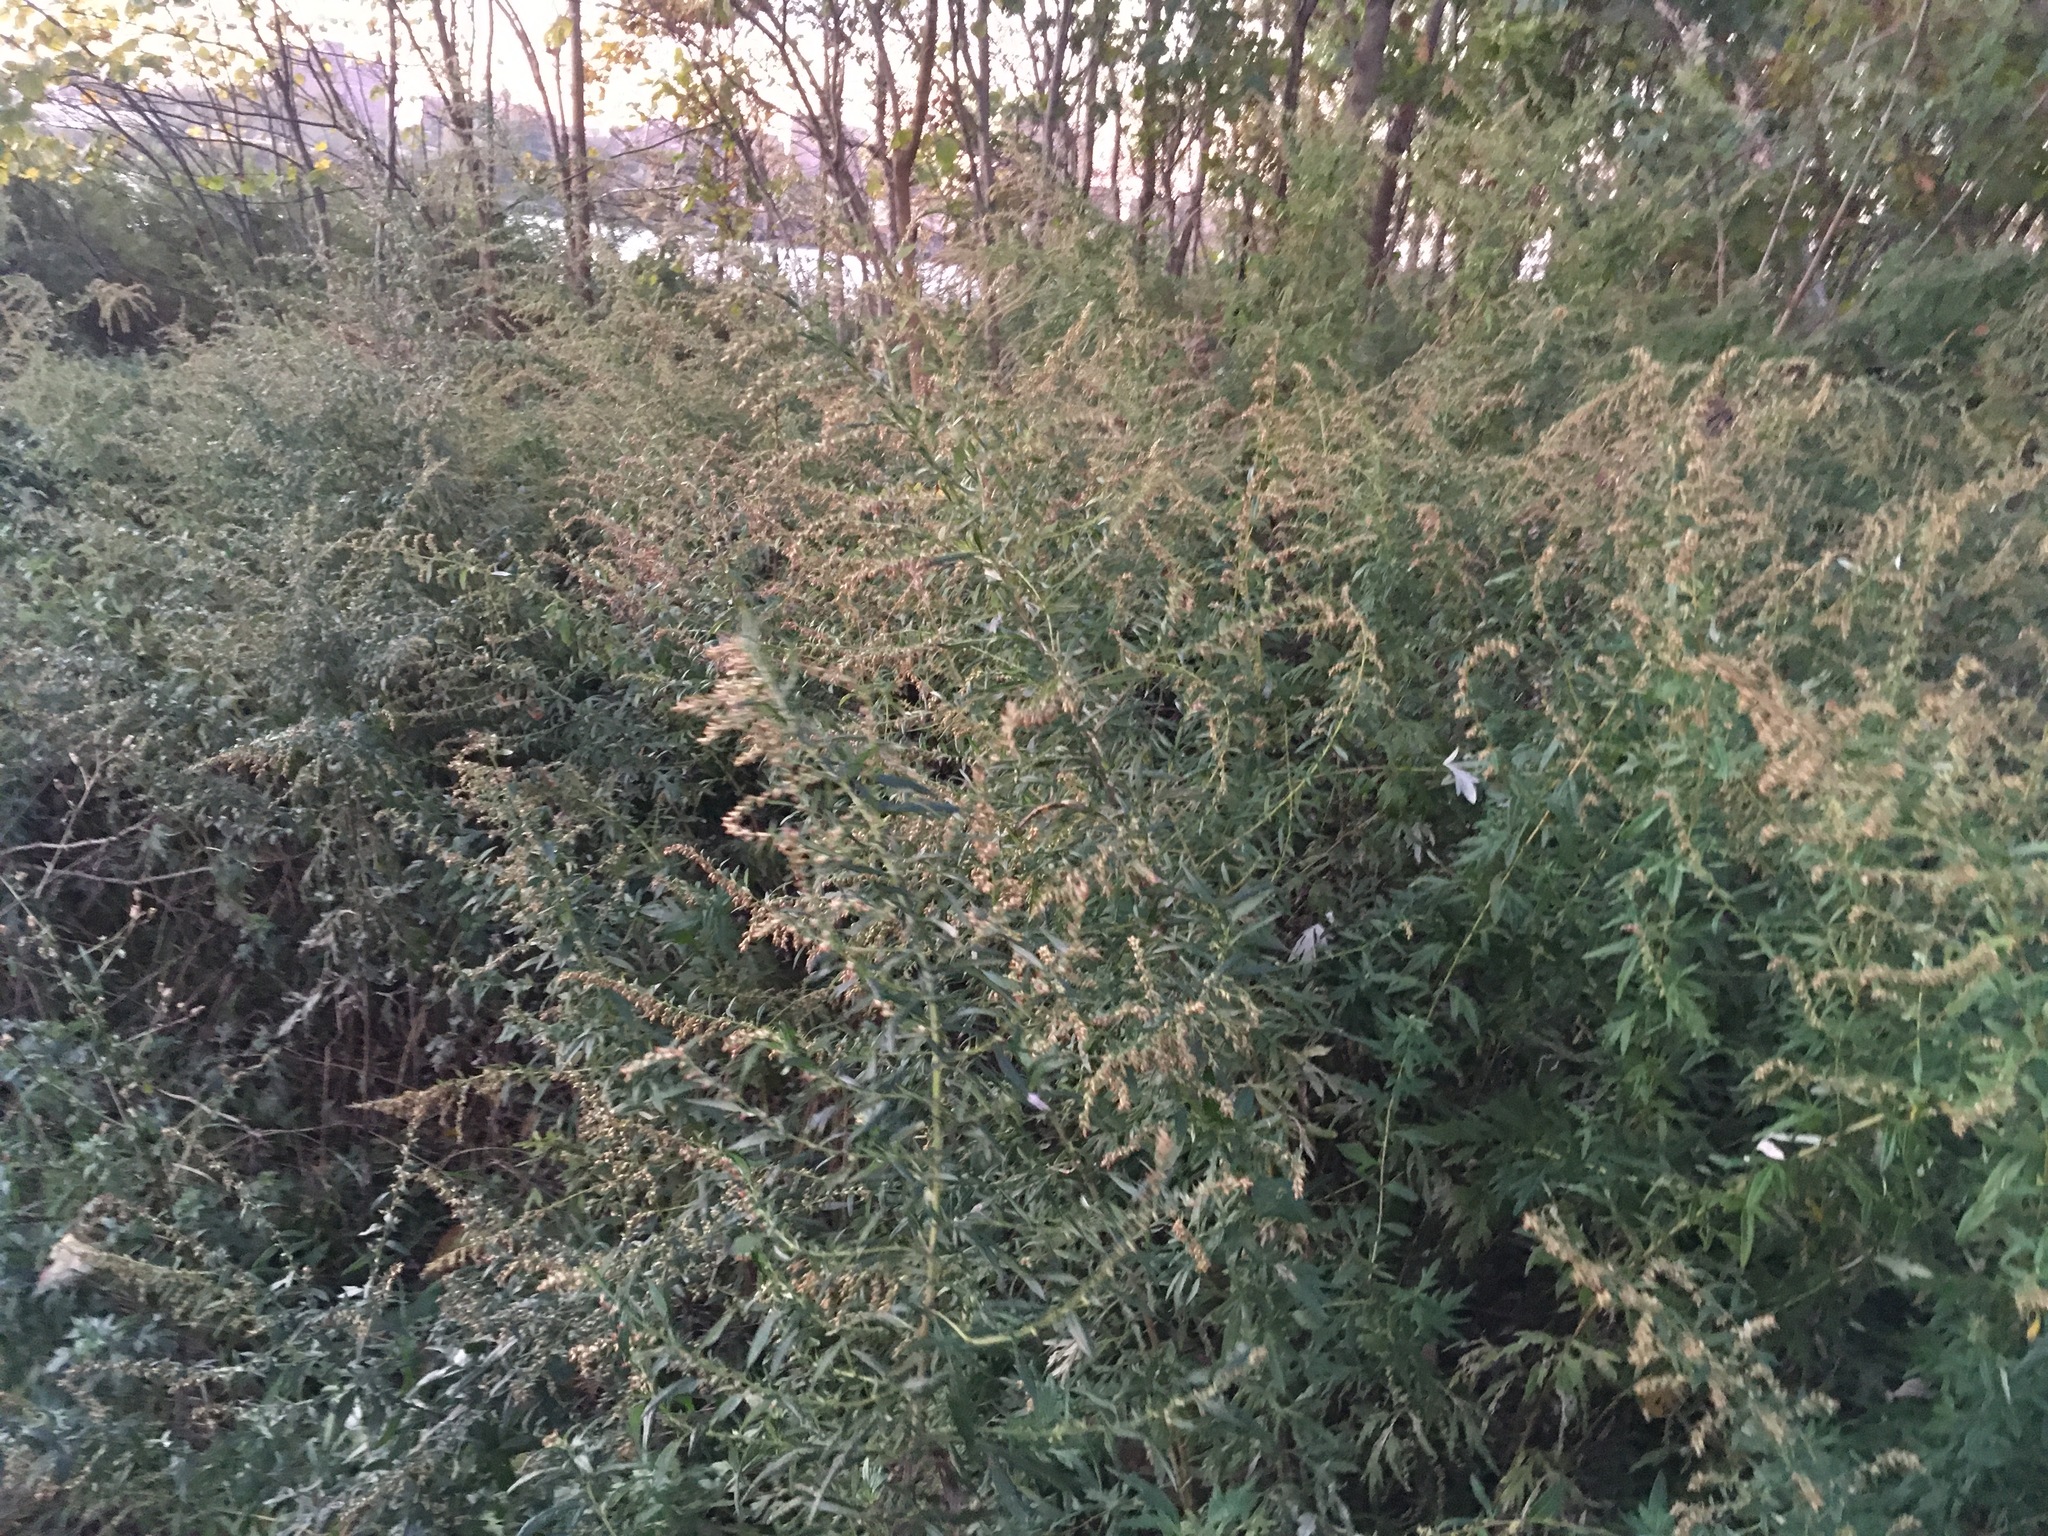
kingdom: Plantae
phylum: Tracheophyta
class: Magnoliopsida
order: Asterales
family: Asteraceae
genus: Artemisia
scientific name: Artemisia vulgaris
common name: Mugwort
